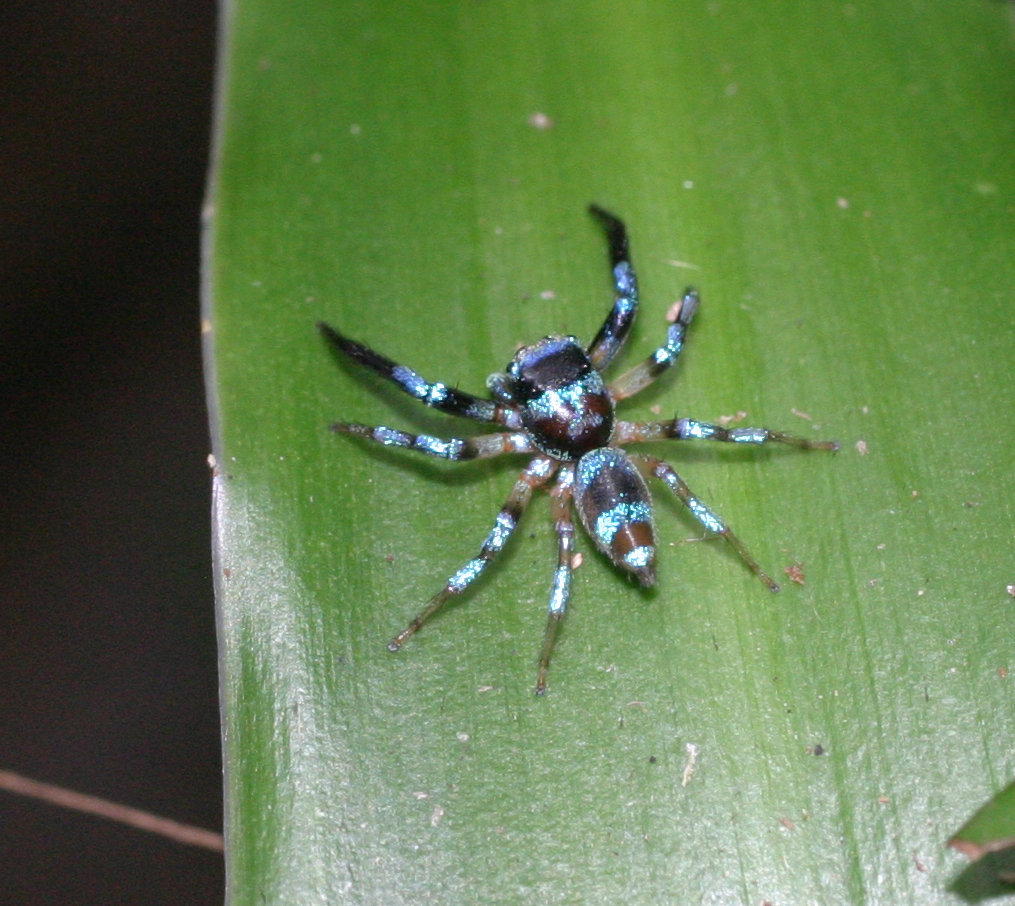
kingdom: Animalia
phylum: Arthropoda
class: Arachnida
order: Araneae
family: Salticidae
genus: Thiania
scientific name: Thiania bhamoensis
